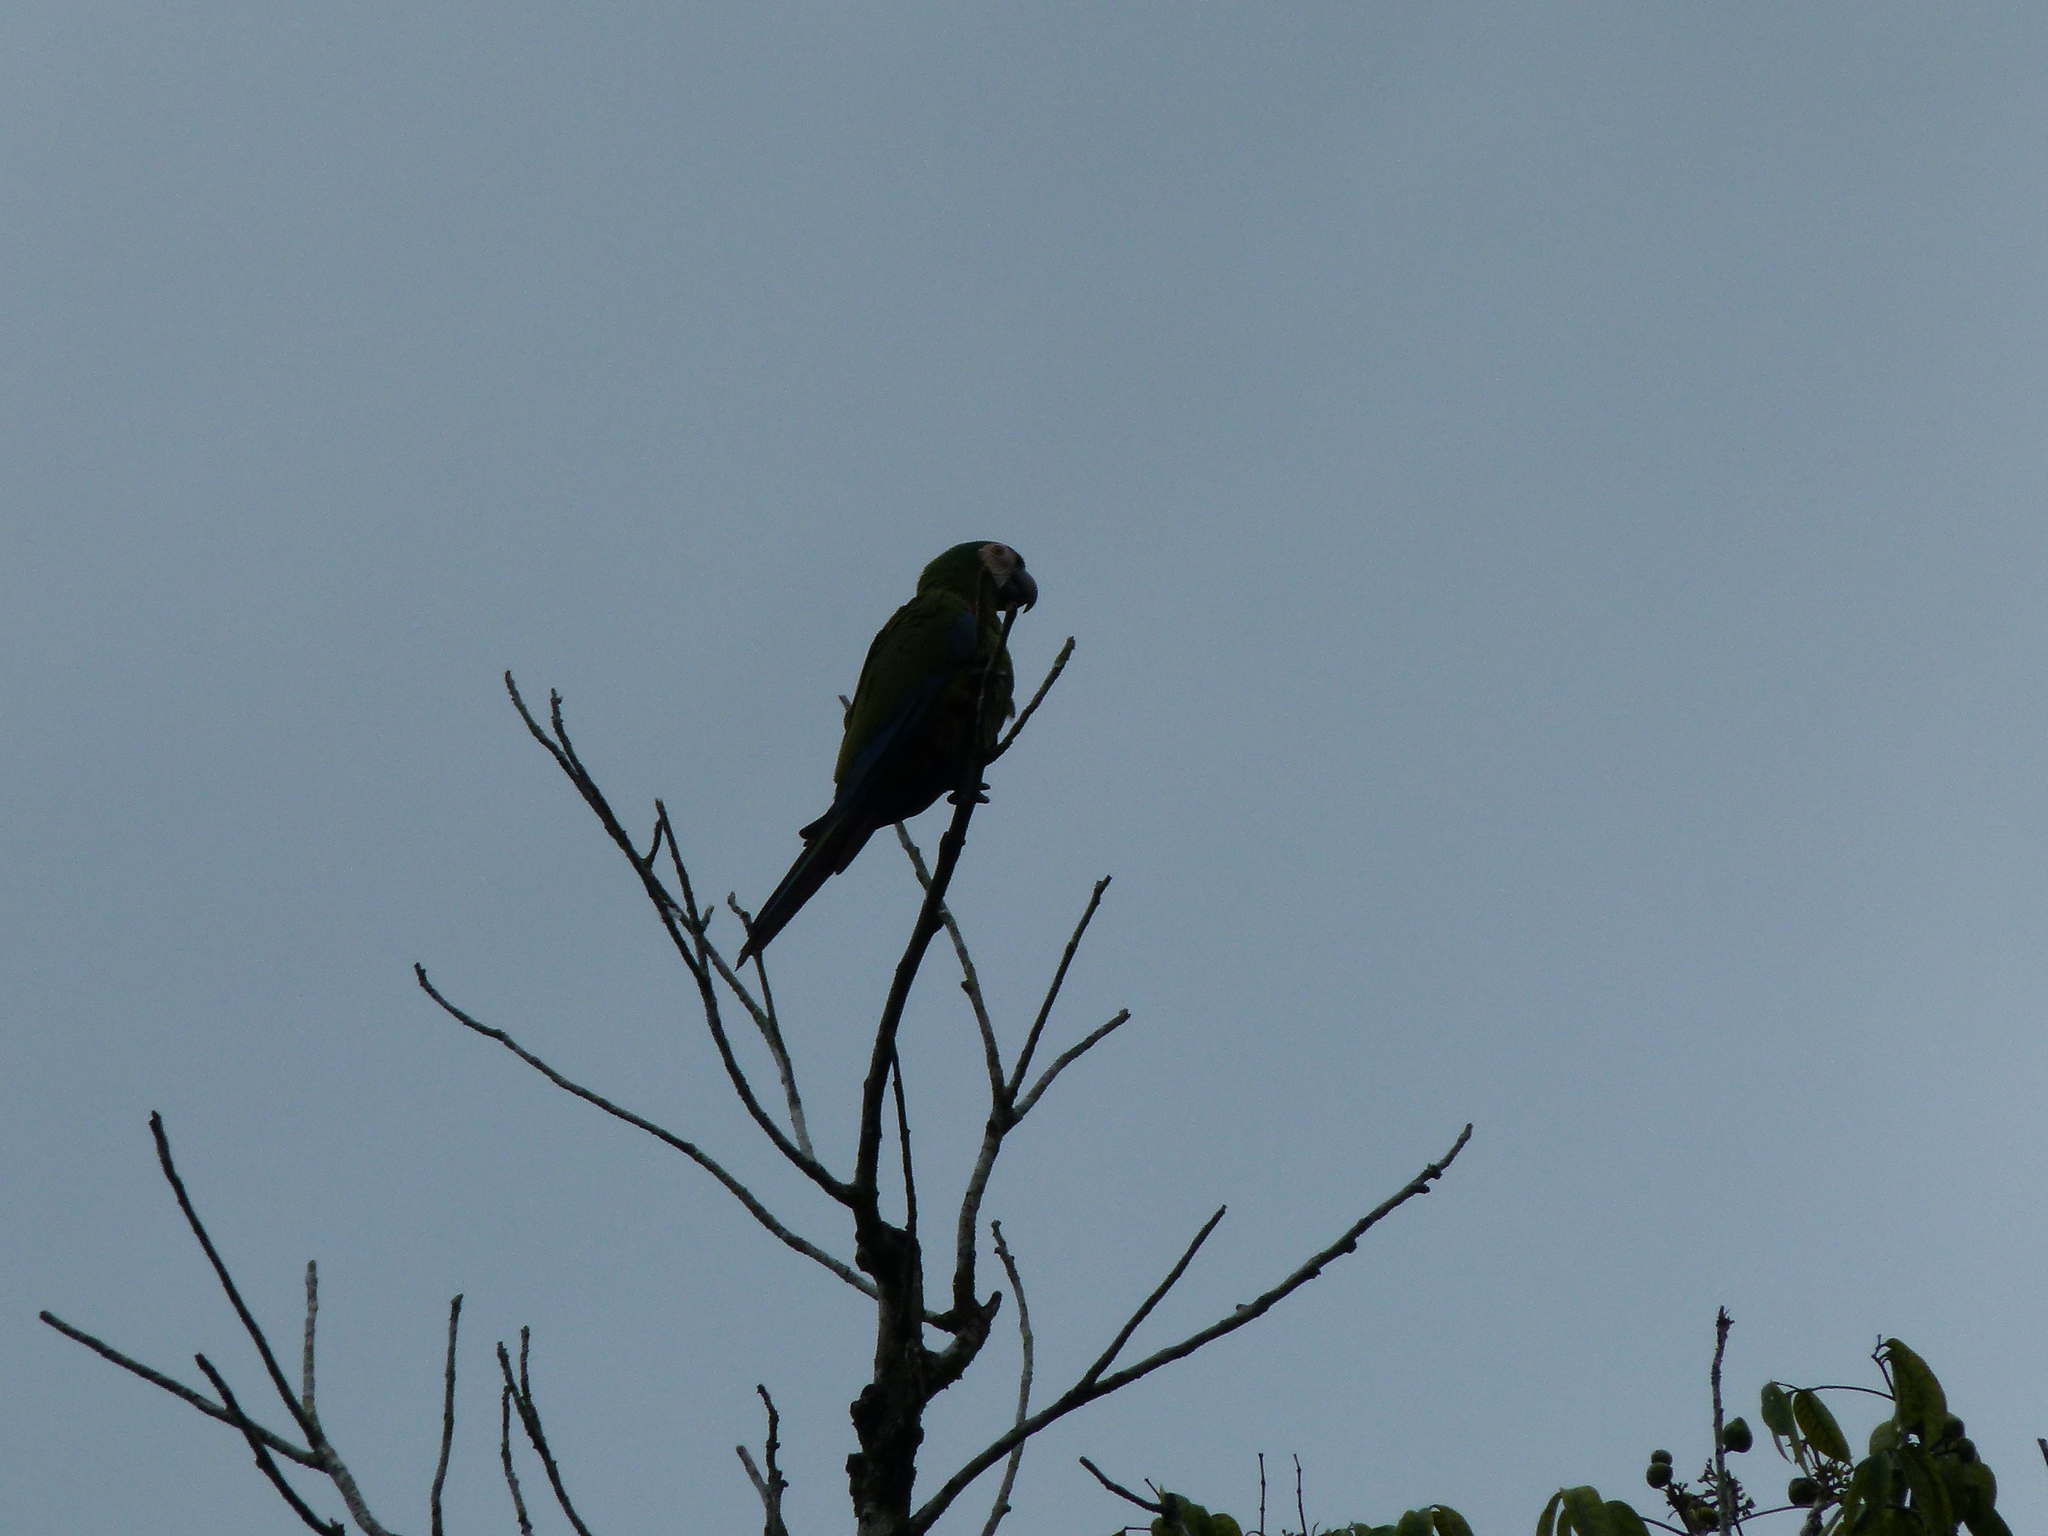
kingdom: Animalia
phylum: Chordata
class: Aves
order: Psittaciformes
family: Psittacidae
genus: Ara
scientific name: Ara severus
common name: Chestnut-fronted macaw
